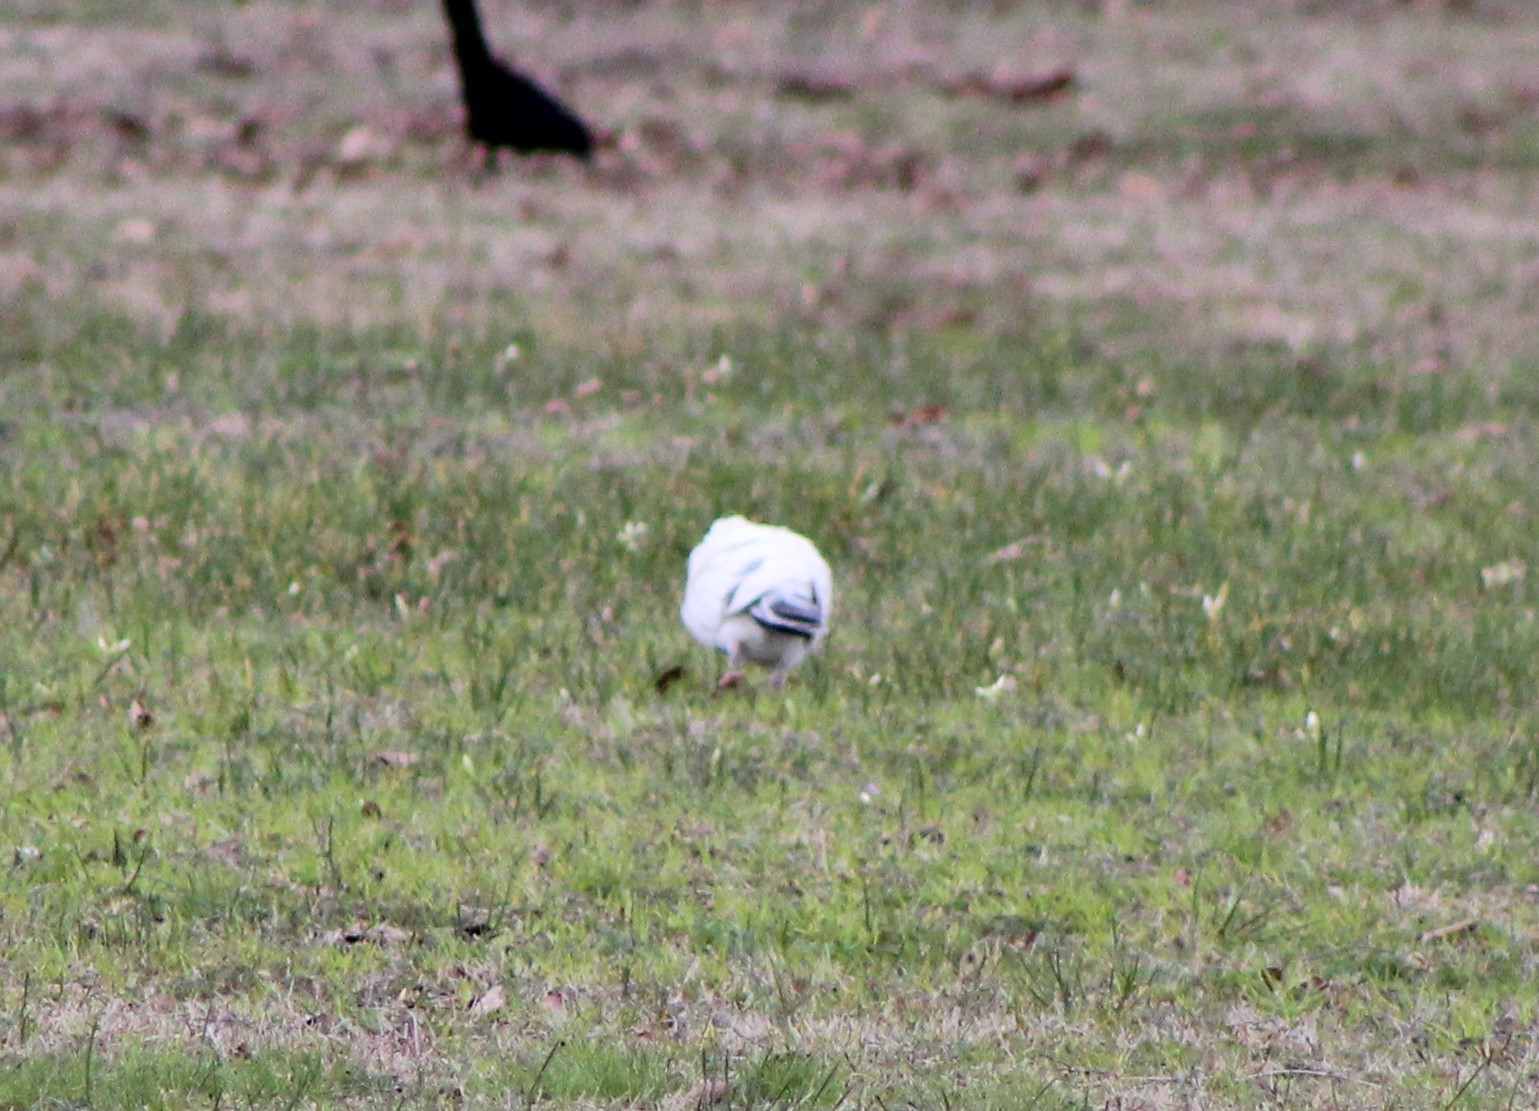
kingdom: Animalia
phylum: Chordata
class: Aves
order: Columbiformes
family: Columbidae
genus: Columba
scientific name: Columba livia
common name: Rock pigeon
